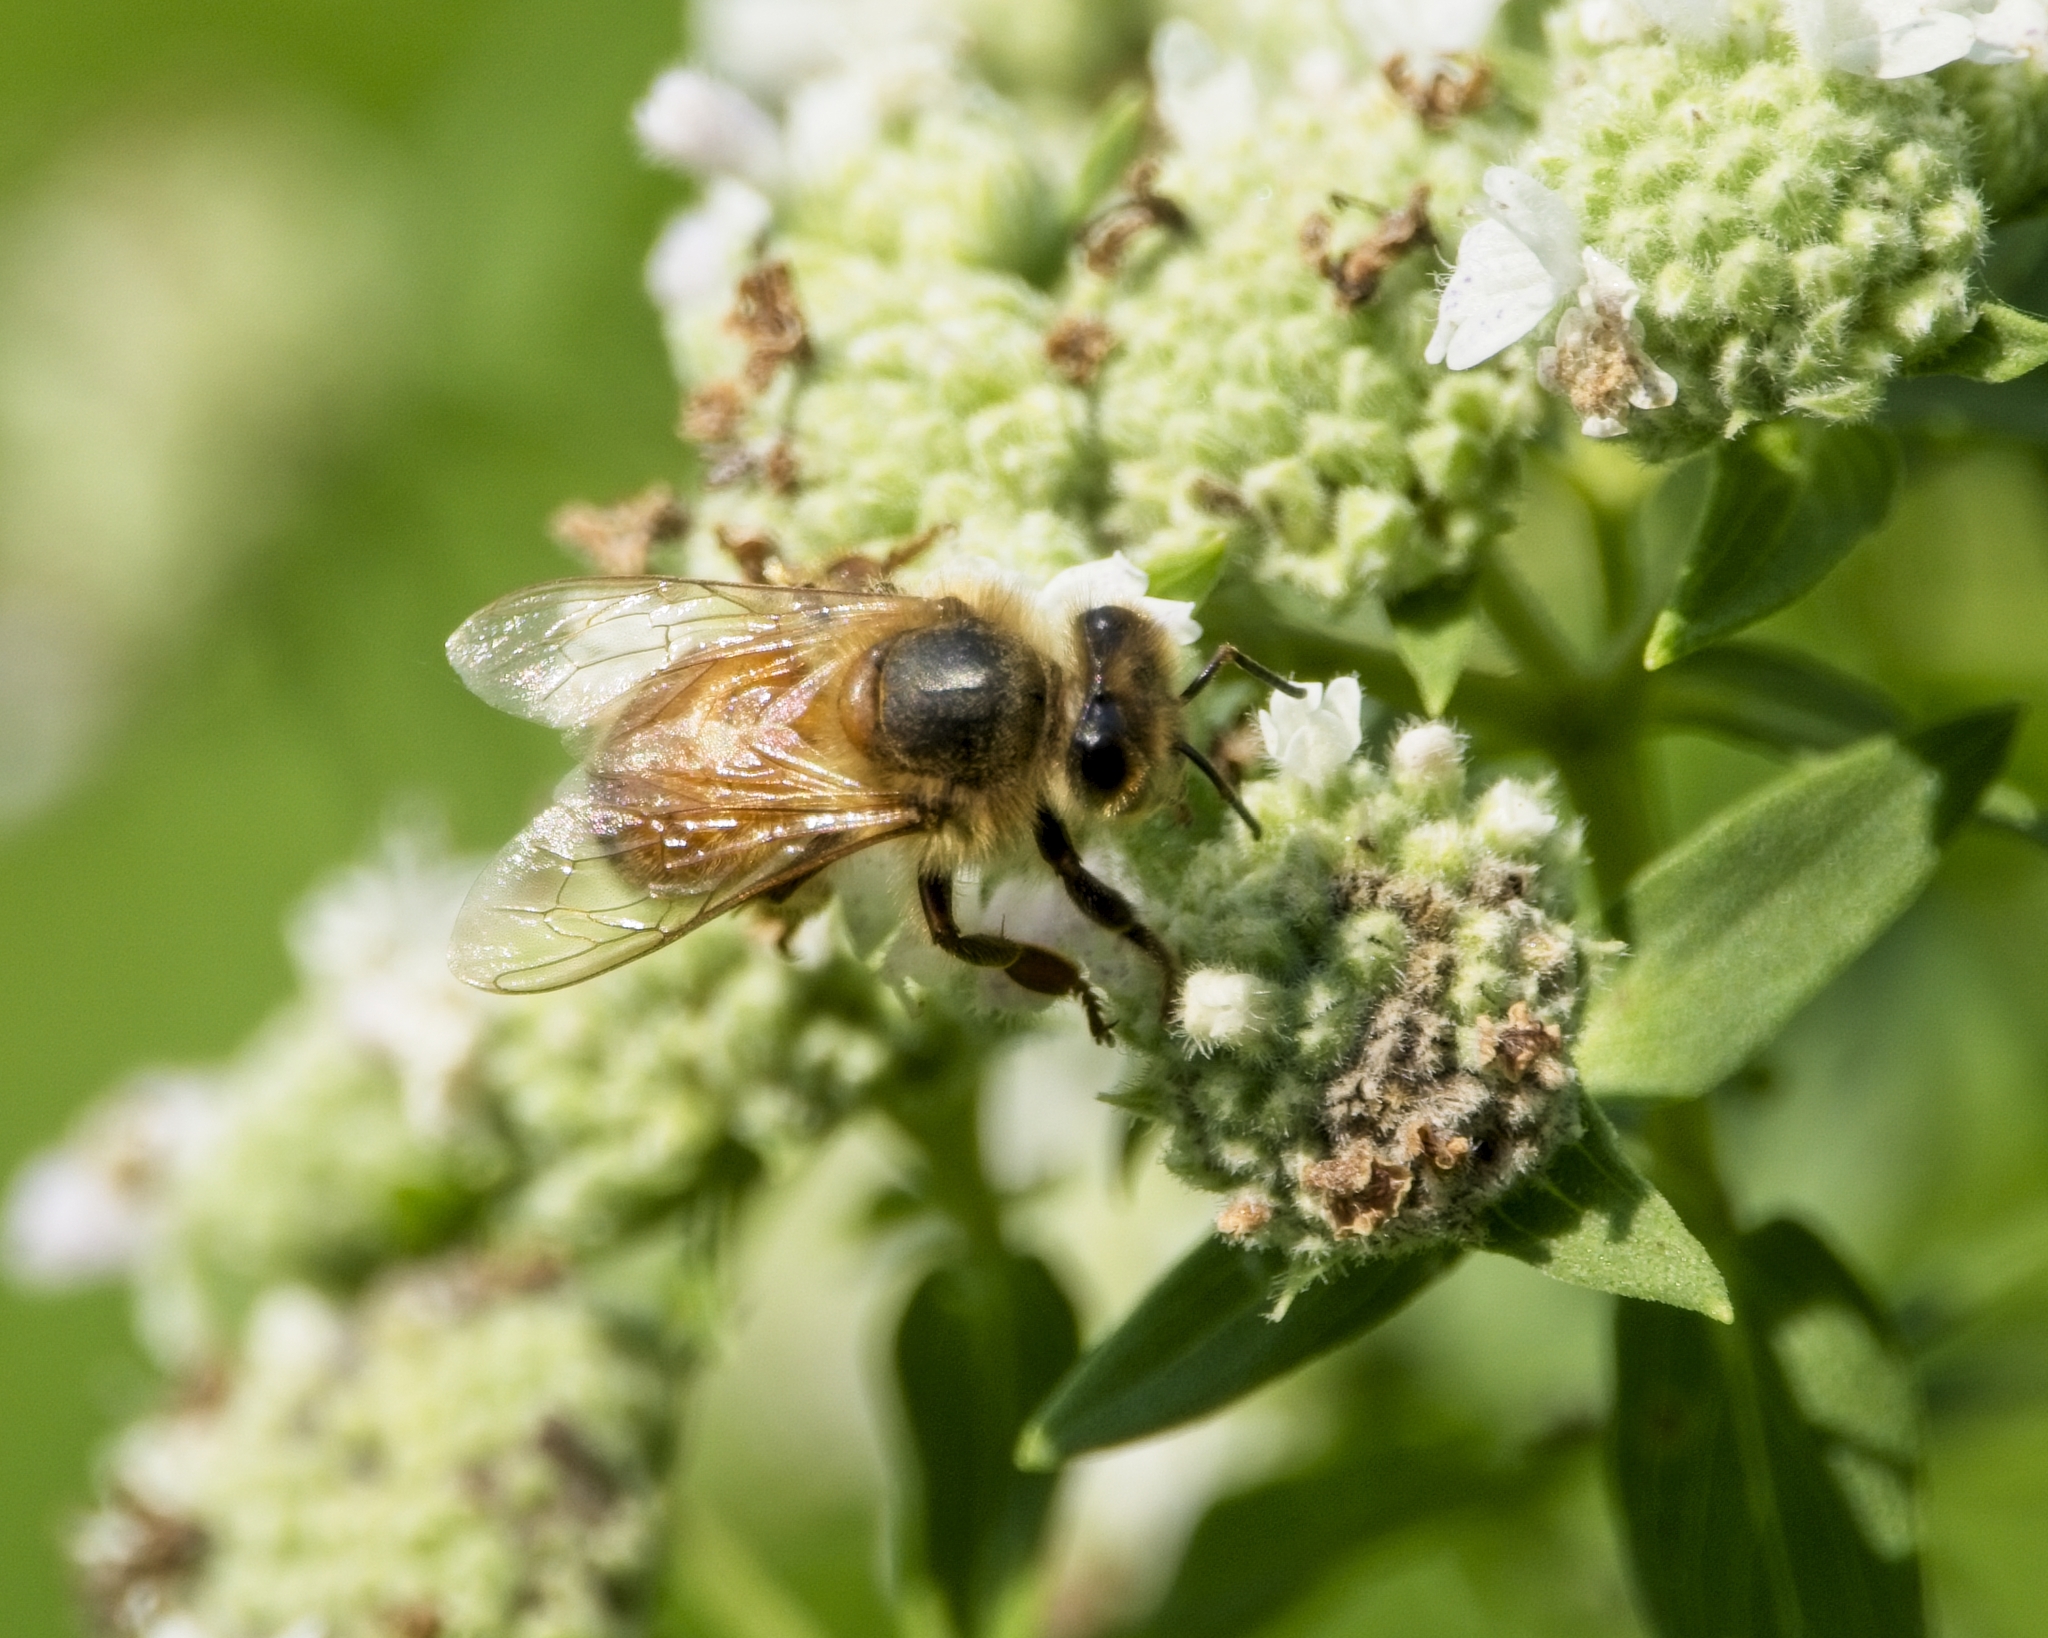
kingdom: Animalia
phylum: Arthropoda
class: Insecta
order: Hymenoptera
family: Apidae
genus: Apis
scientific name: Apis mellifera
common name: Honey bee
